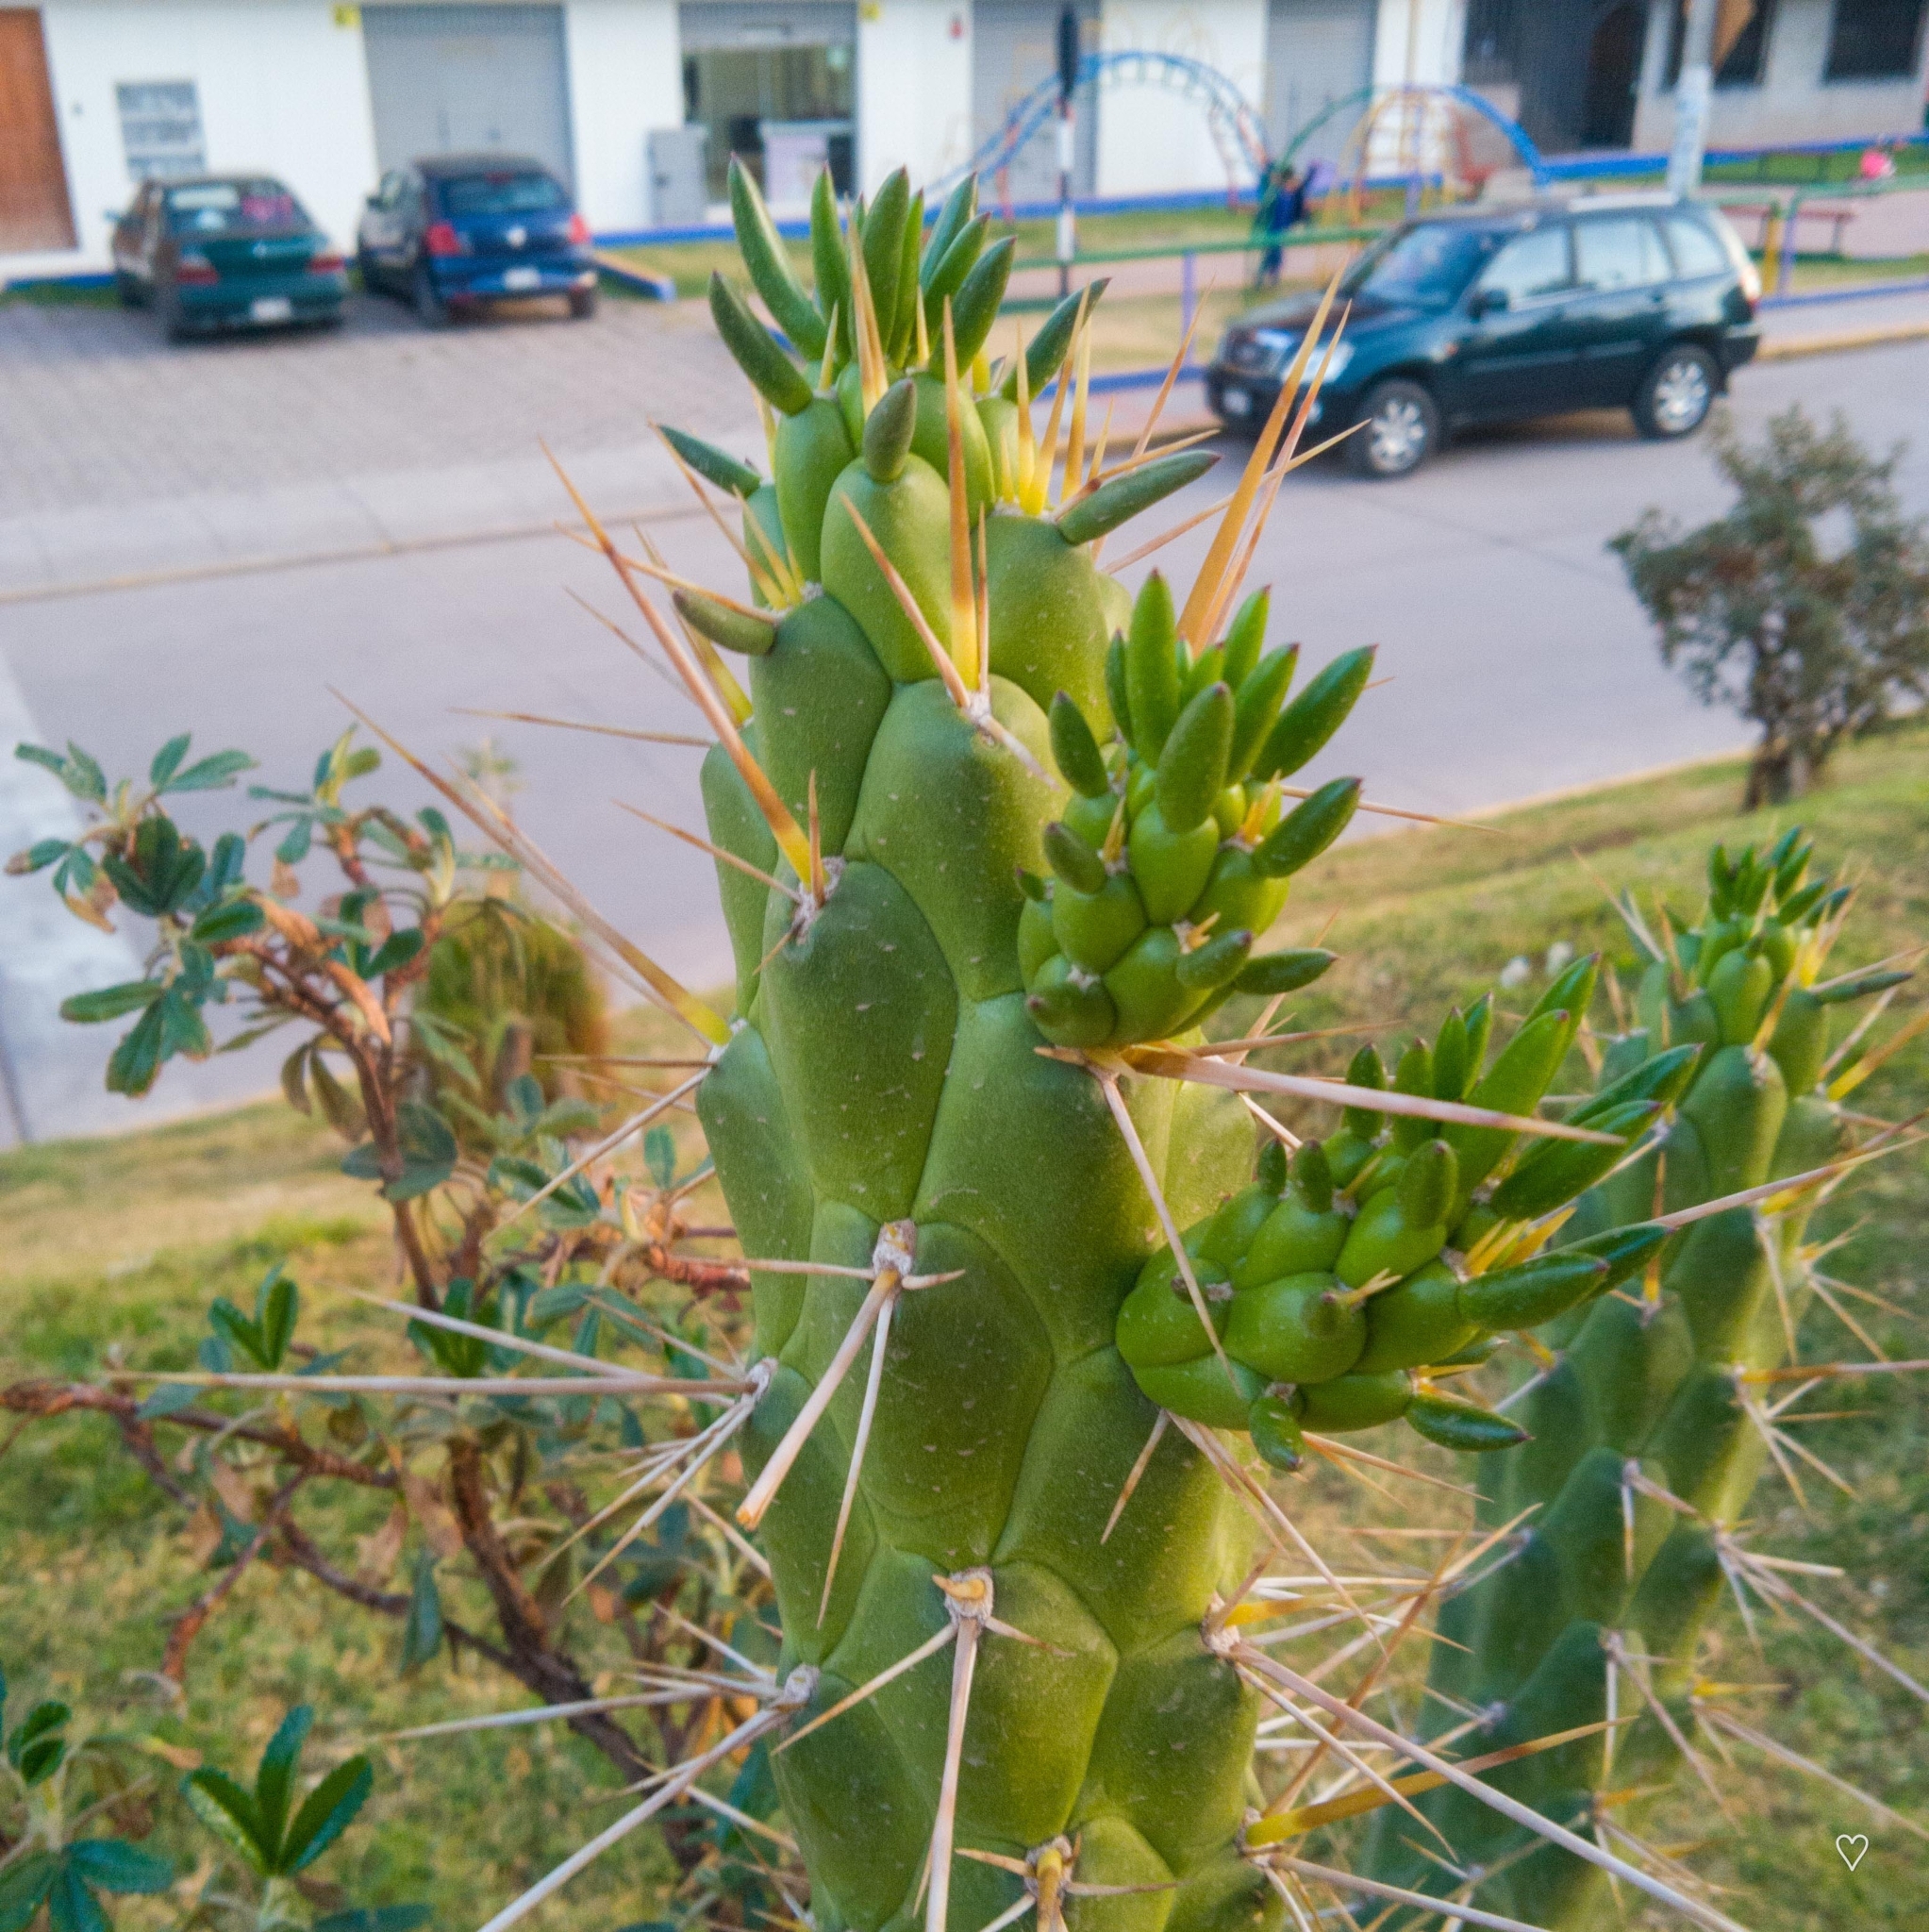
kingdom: Plantae
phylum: Tracheophyta
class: Magnoliopsida
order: Caryophyllales
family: Cactaceae
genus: Austrocylindropuntia
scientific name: Austrocylindropuntia subulata
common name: Eve's needle cactus
